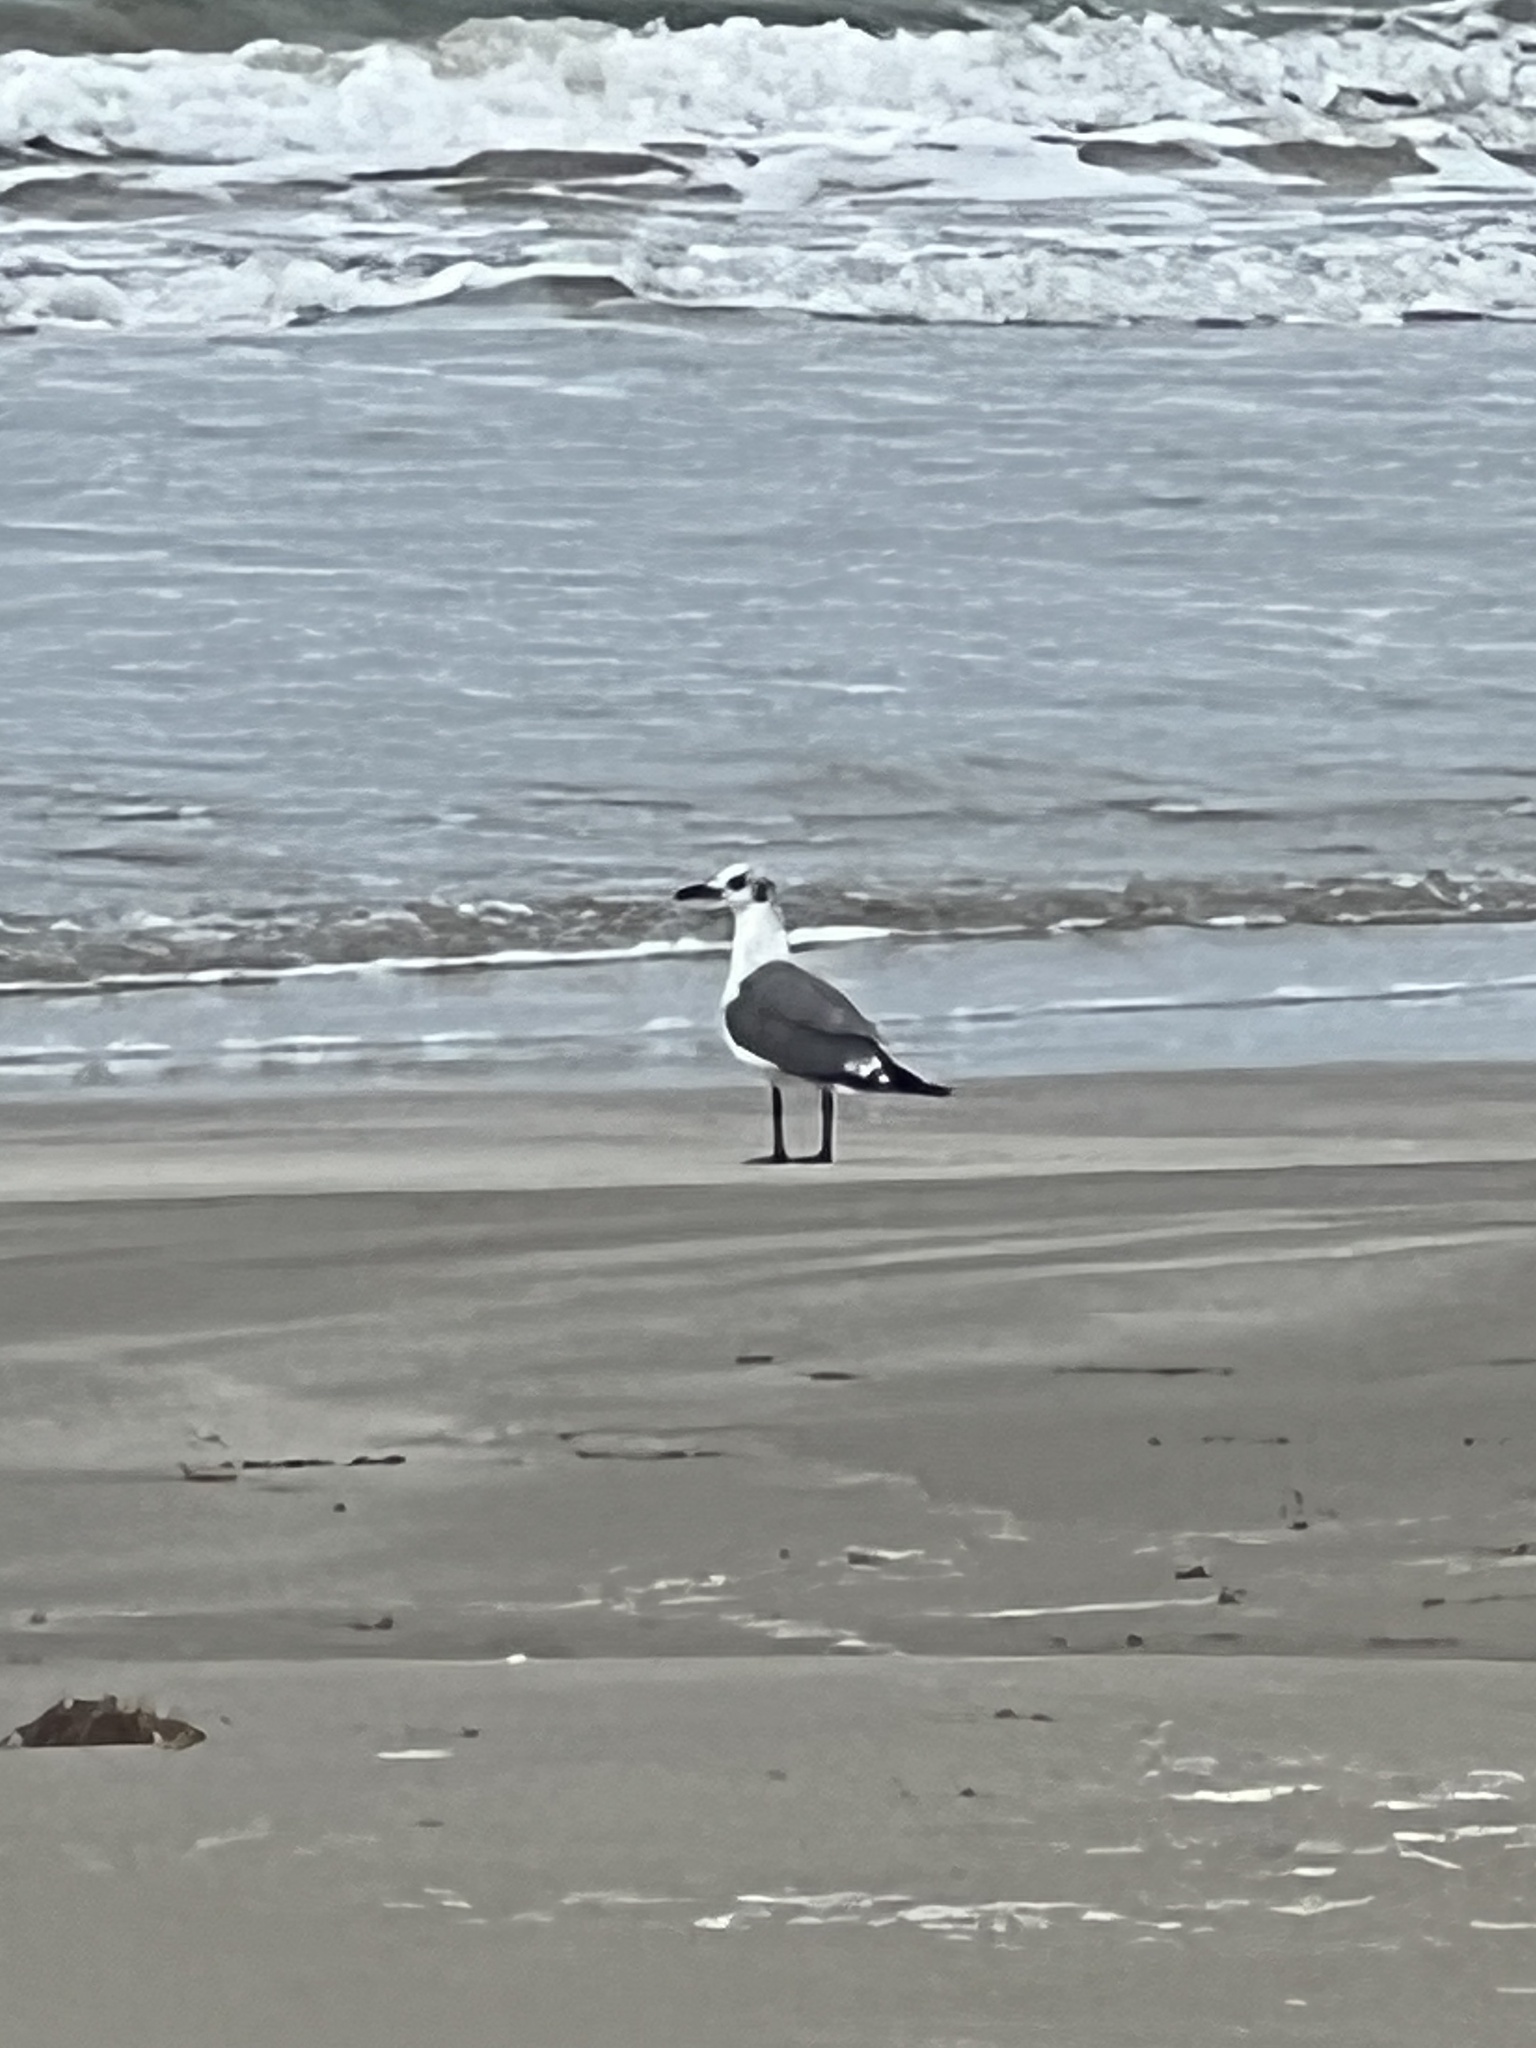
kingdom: Animalia
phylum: Chordata
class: Aves
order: Charadriiformes
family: Laridae
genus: Leucophaeus
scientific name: Leucophaeus atricilla
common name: Laughing gull
